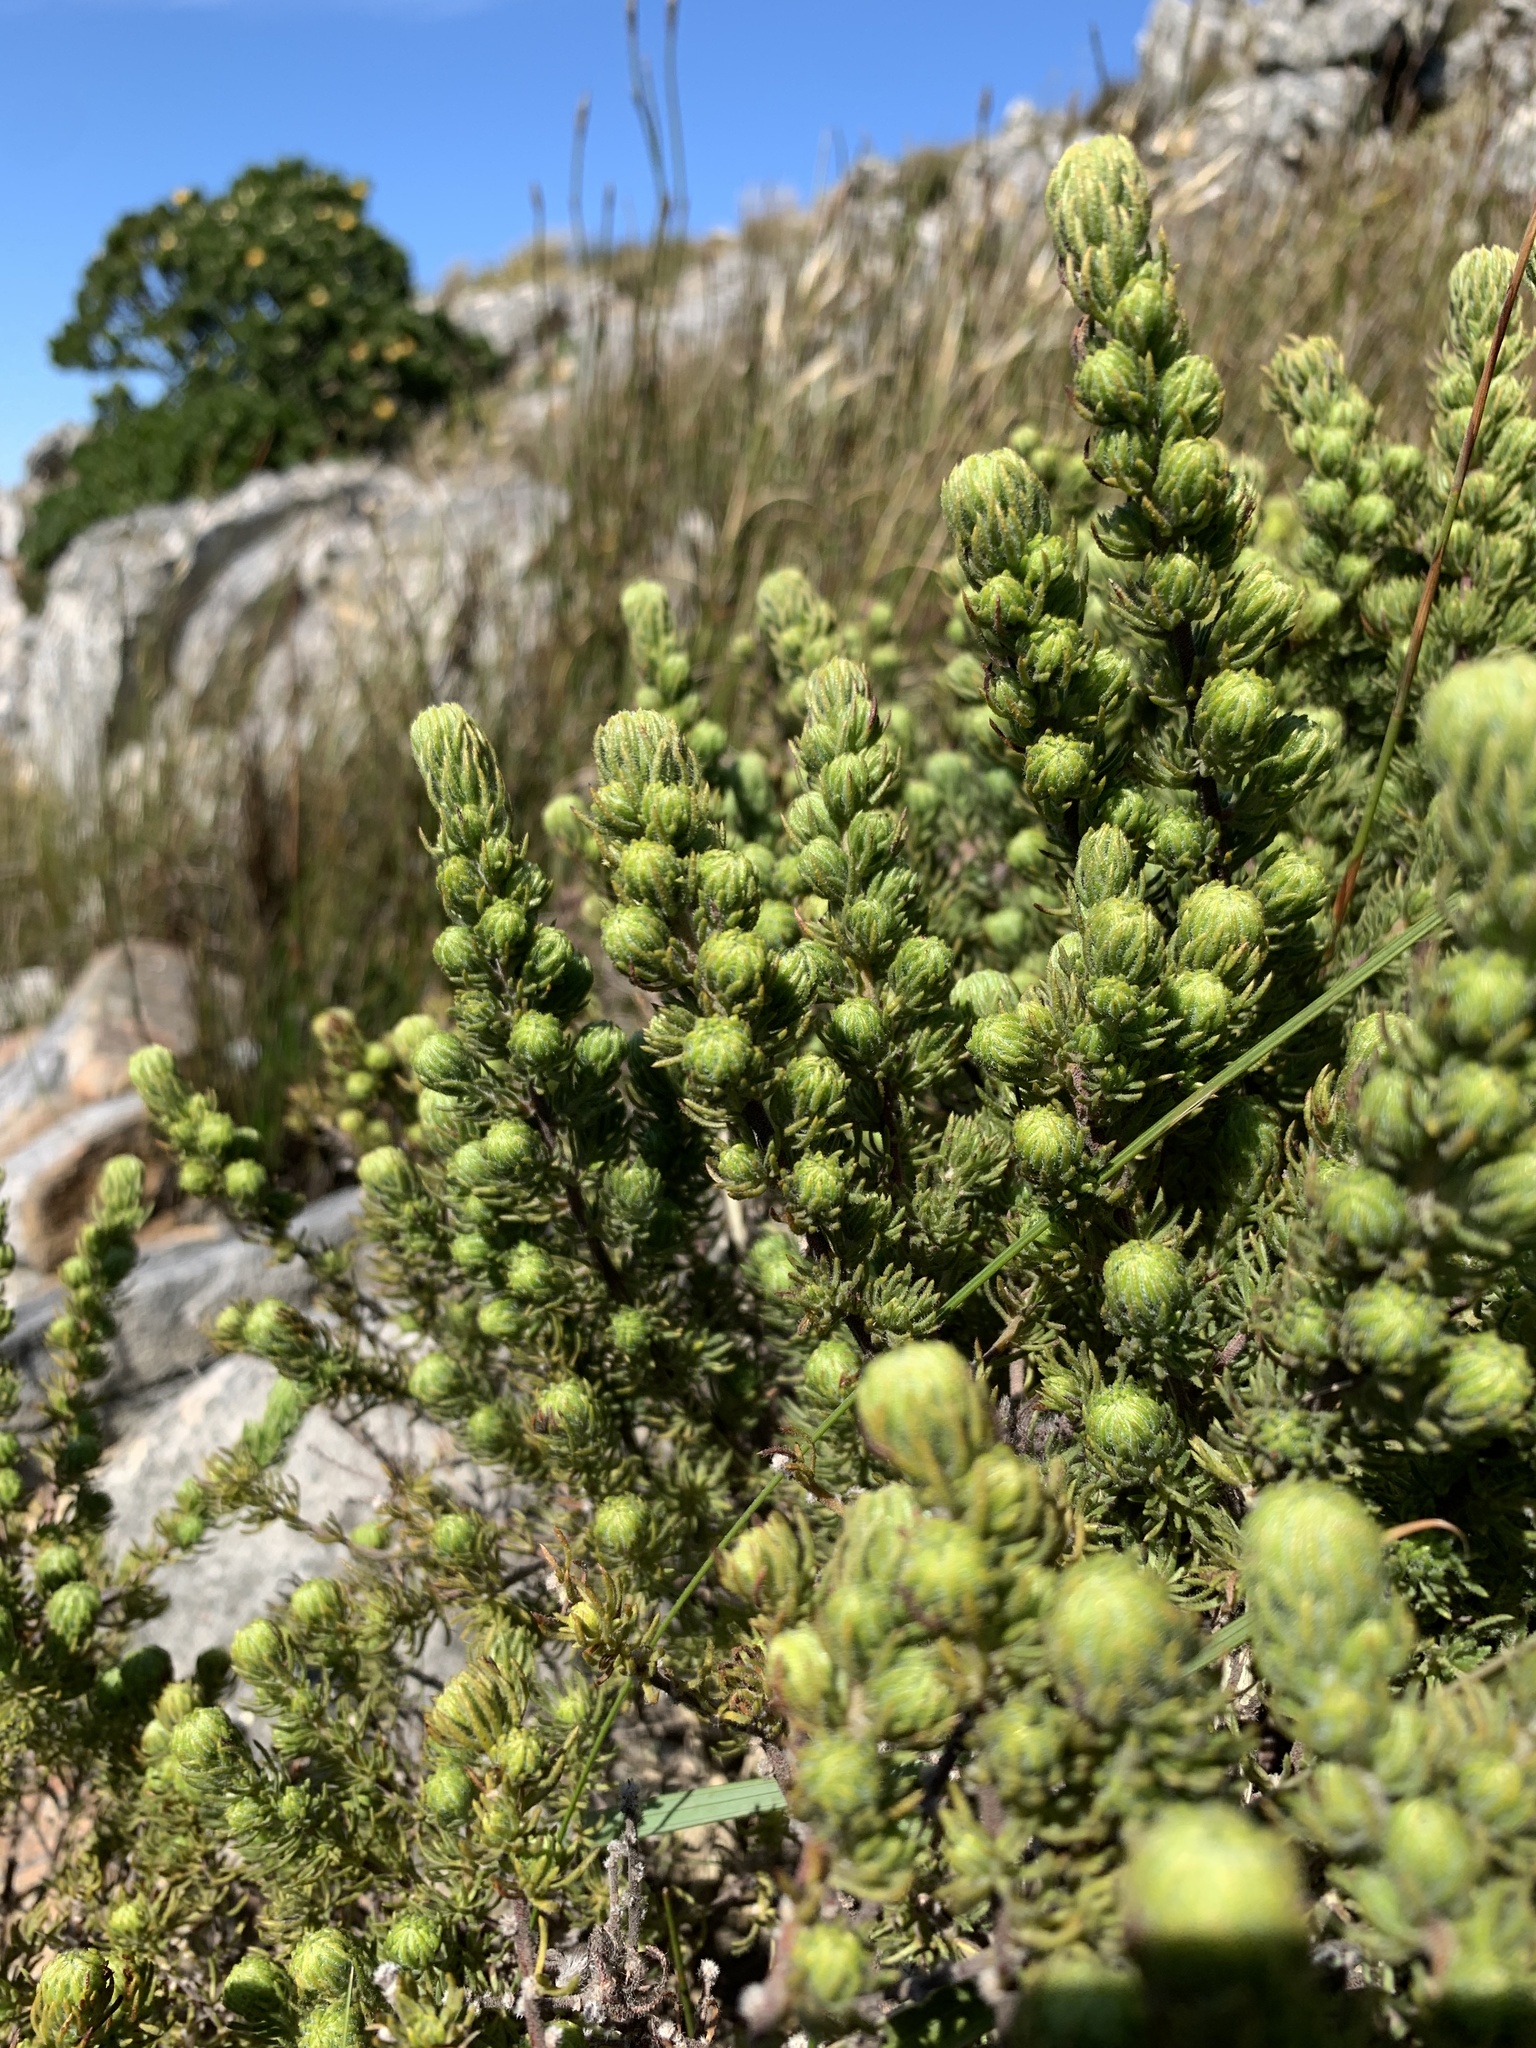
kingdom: Plantae
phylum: Tracheophyta
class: Magnoliopsida
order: Rosales
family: Rosaceae
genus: Cliffortia
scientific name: Cliffortia polygonifolia
